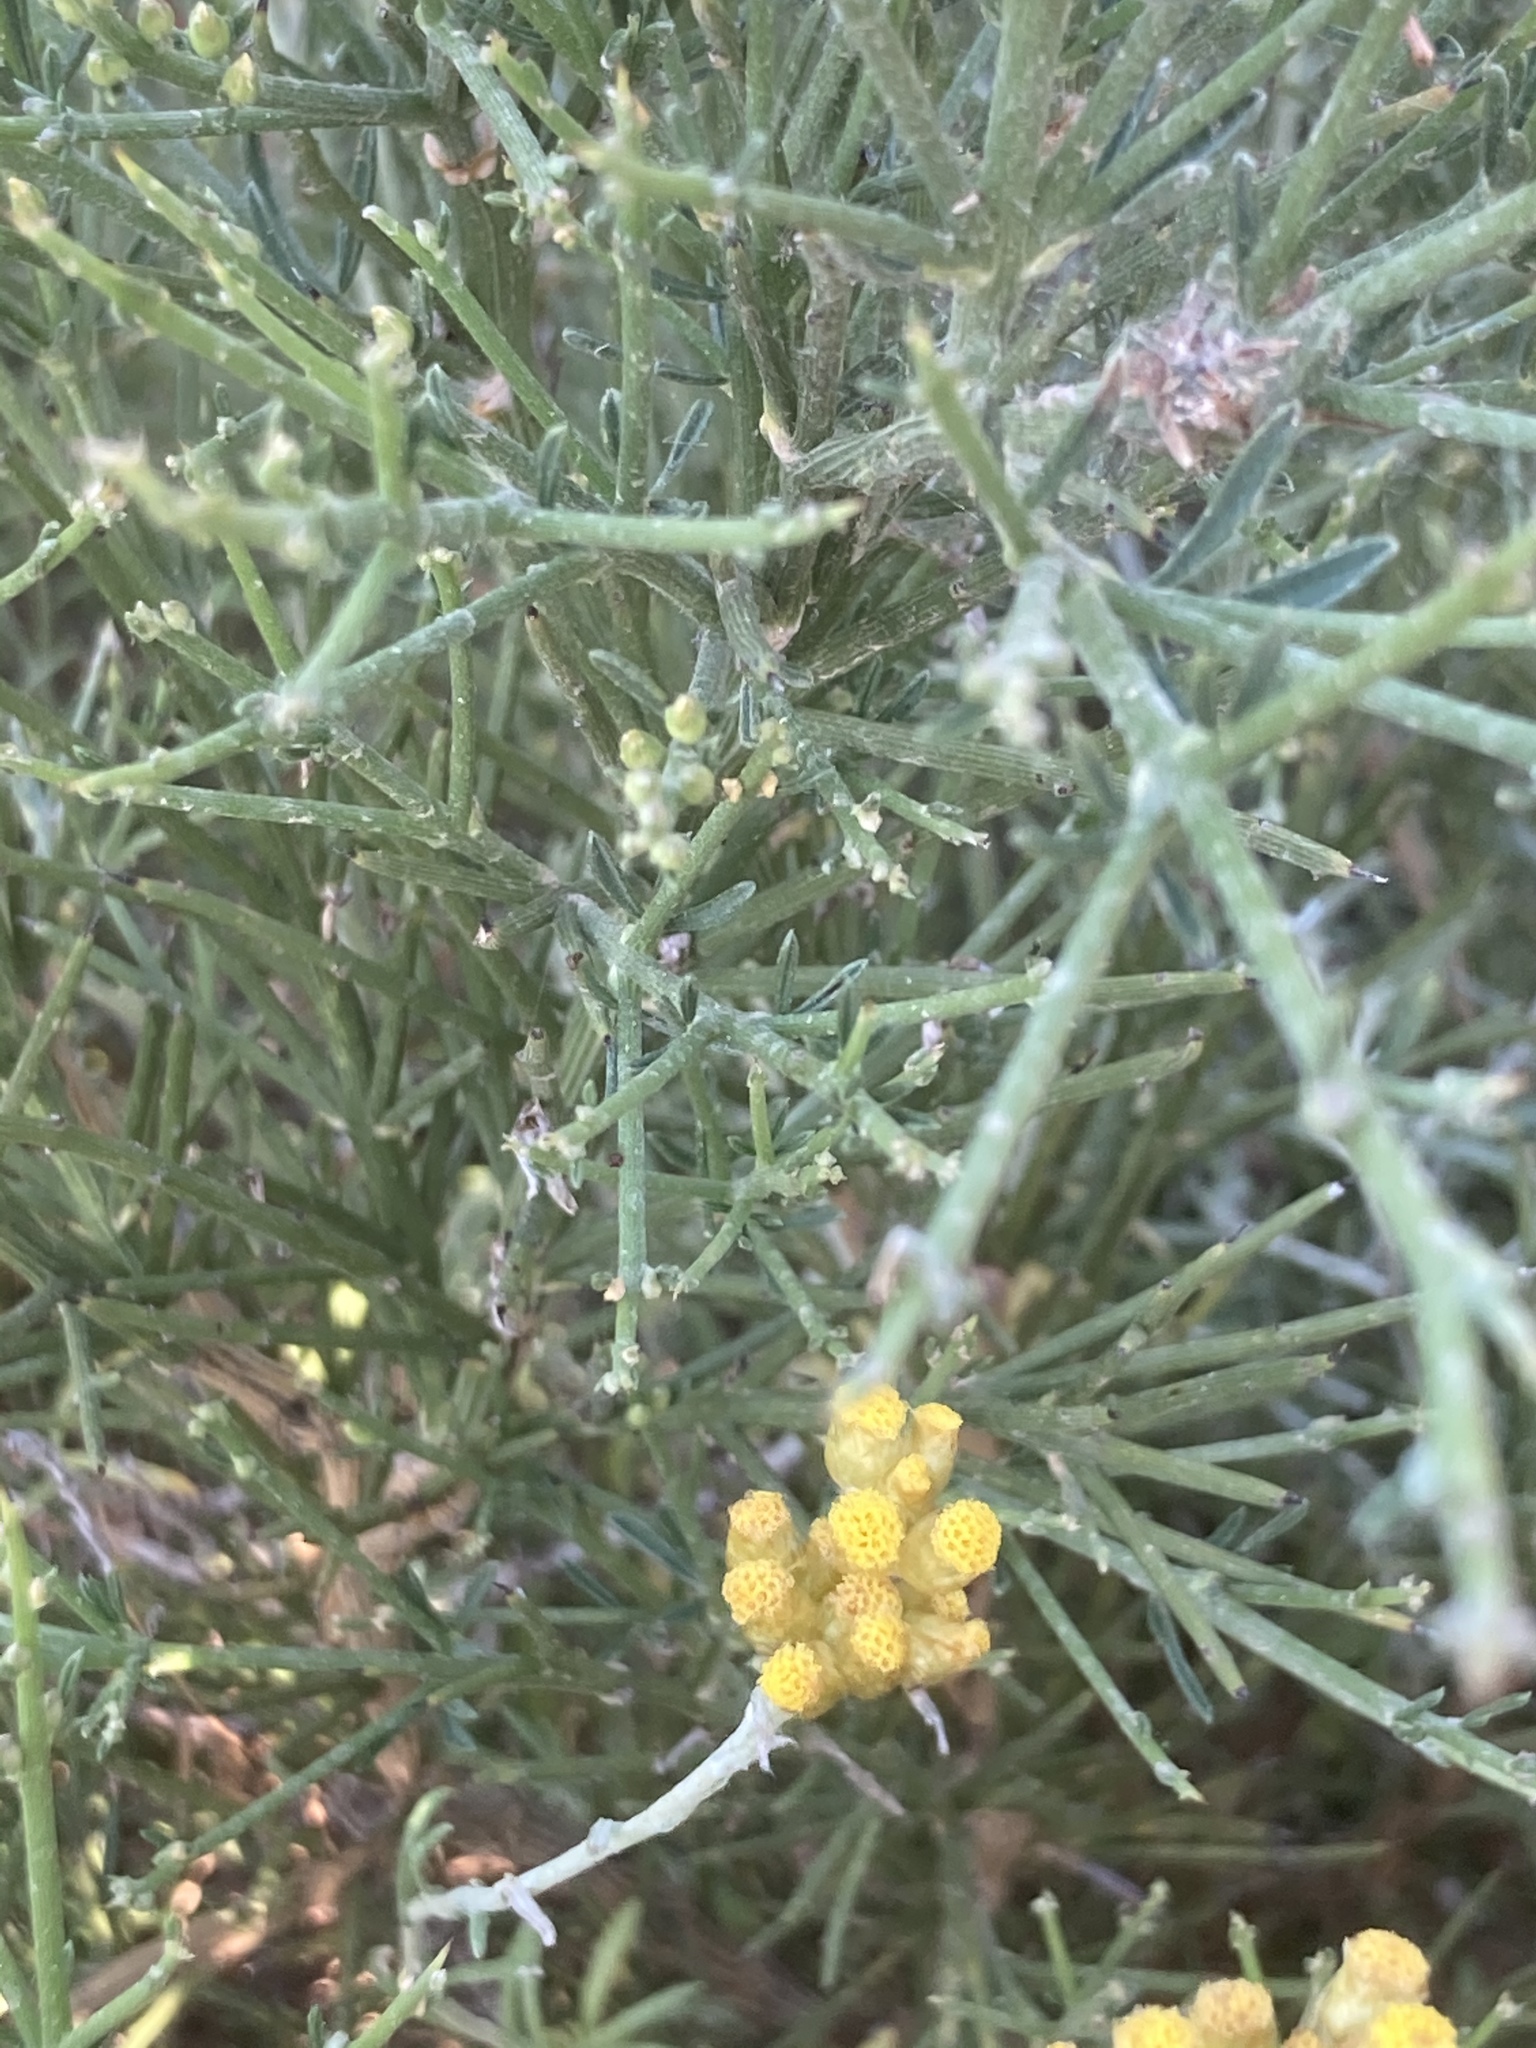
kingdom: Plantae
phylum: Tracheophyta
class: Magnoliopsida
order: Asterales
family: Asteraceae
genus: Helichrysum
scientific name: Helichrysum stoechas
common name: Goldilocks
